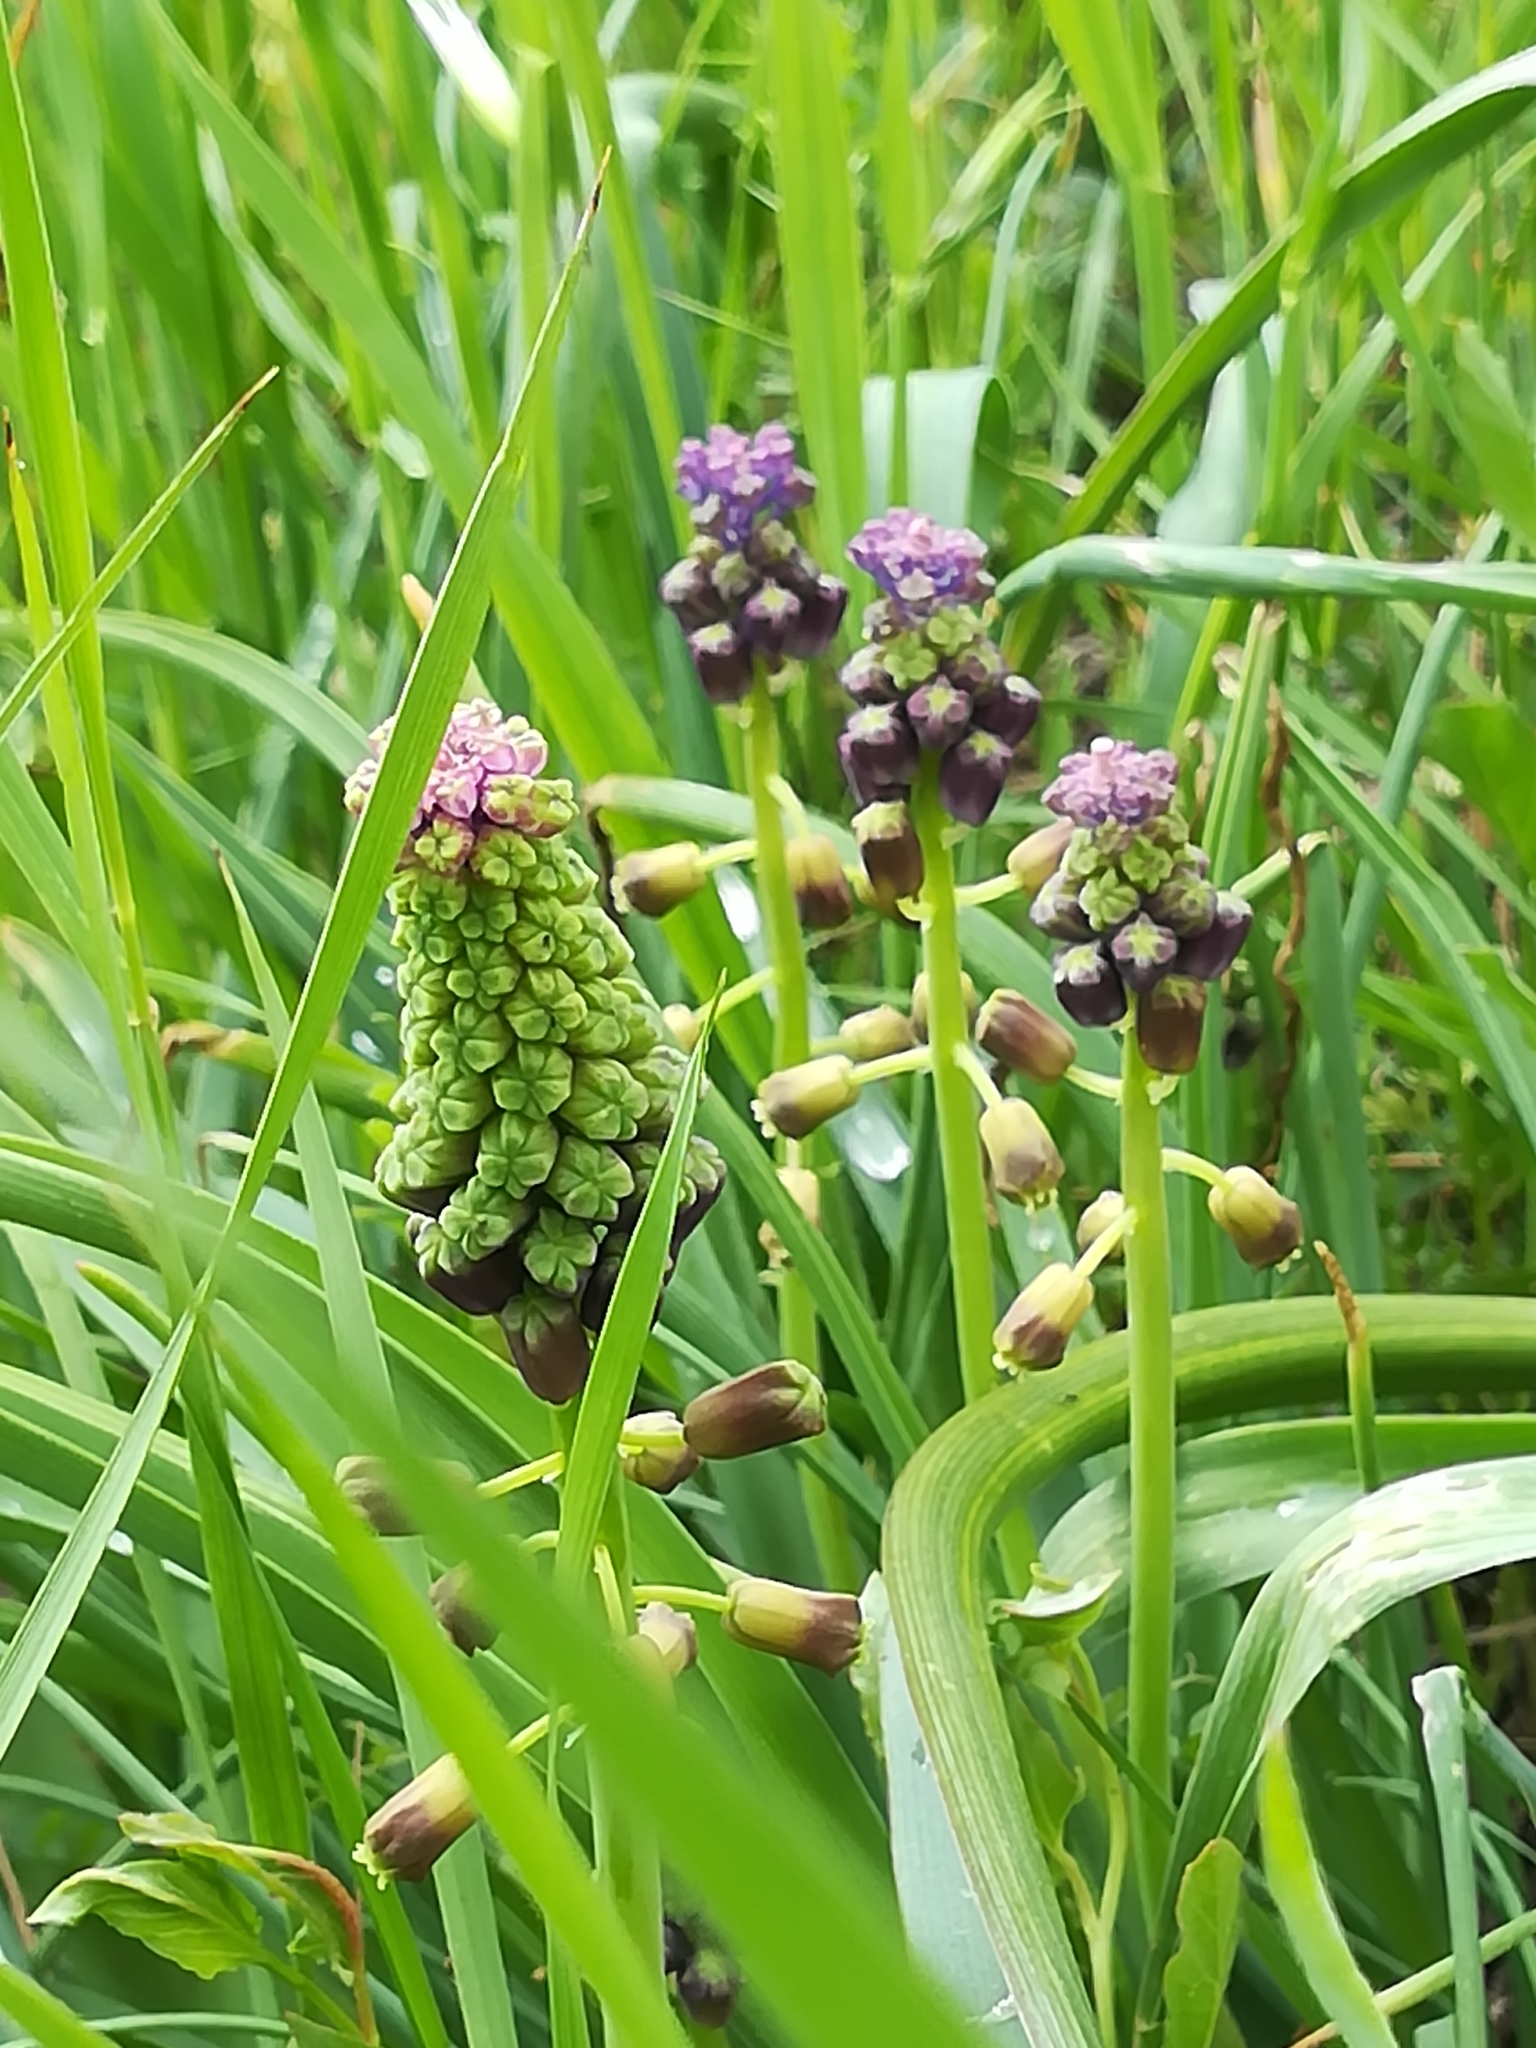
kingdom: Plantae
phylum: Tracheophyta
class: Liliopsida
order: Asparagales
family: Asparagaceae
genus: Muscari
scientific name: Muscari comosum
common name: Tassel hyacinth
